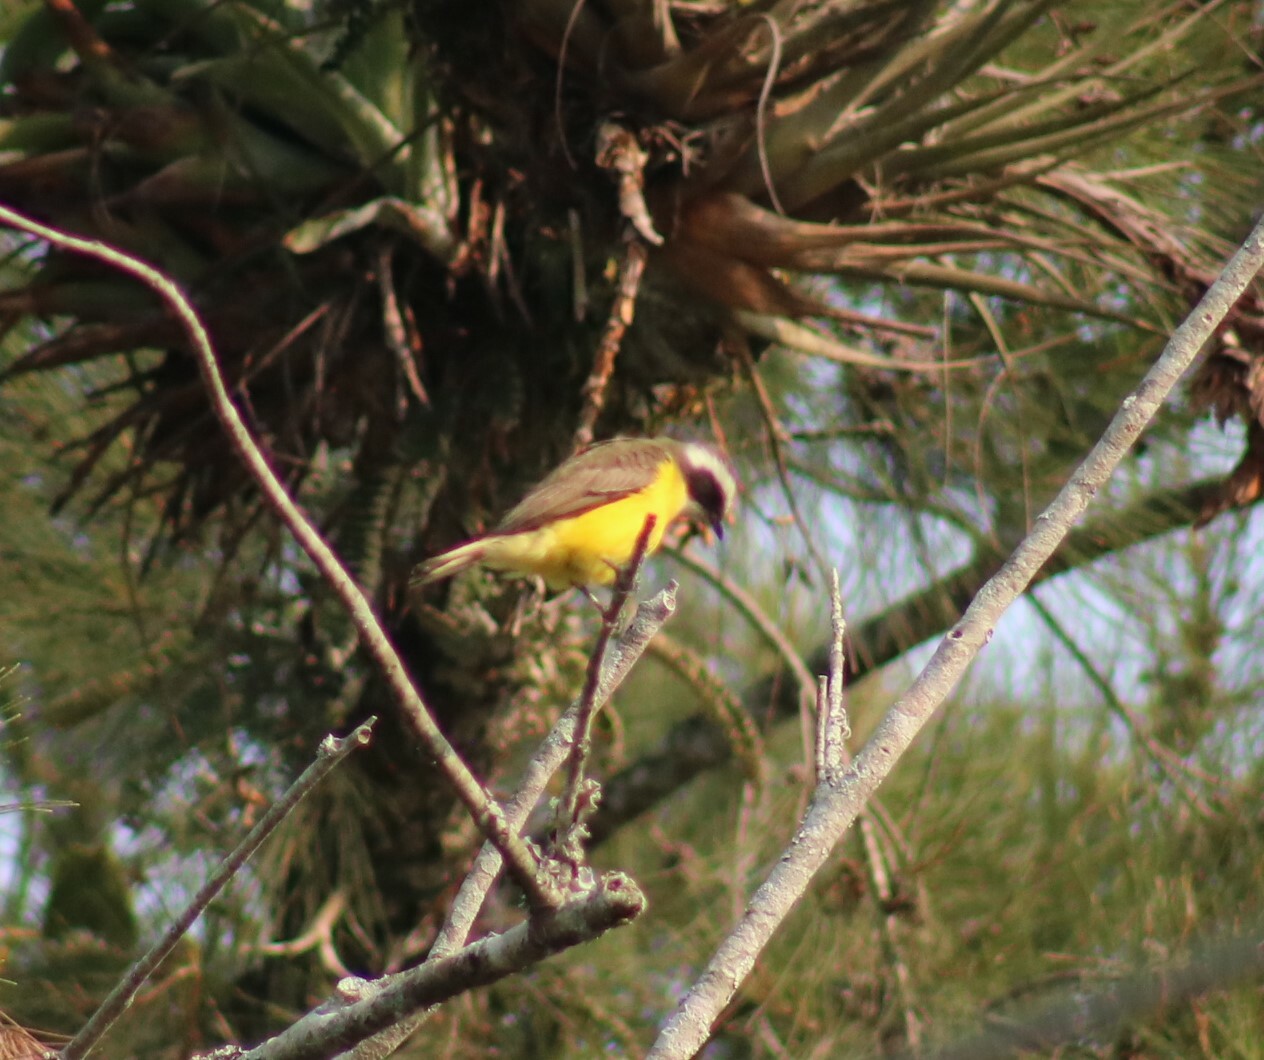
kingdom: Animalia
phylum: Chordata
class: Aves
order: Passeriformes
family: Tyrannidae
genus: Myiozetetes
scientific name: Myiozetetes similis
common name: Social flycatcher
